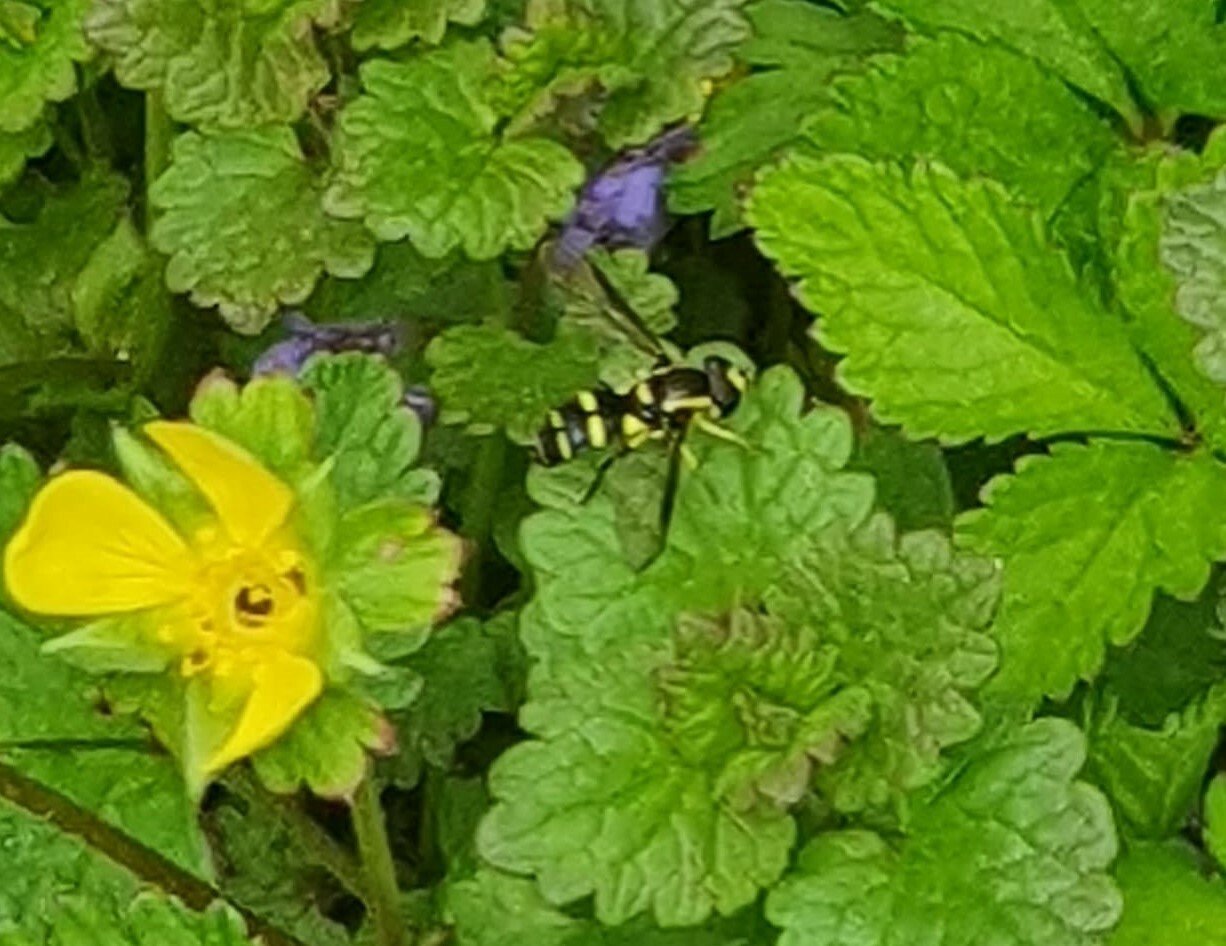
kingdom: Animalia
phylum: Arthropoda
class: Insecta
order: Diptera
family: Syrphidae
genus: Philhelius
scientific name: Philhelius dives
